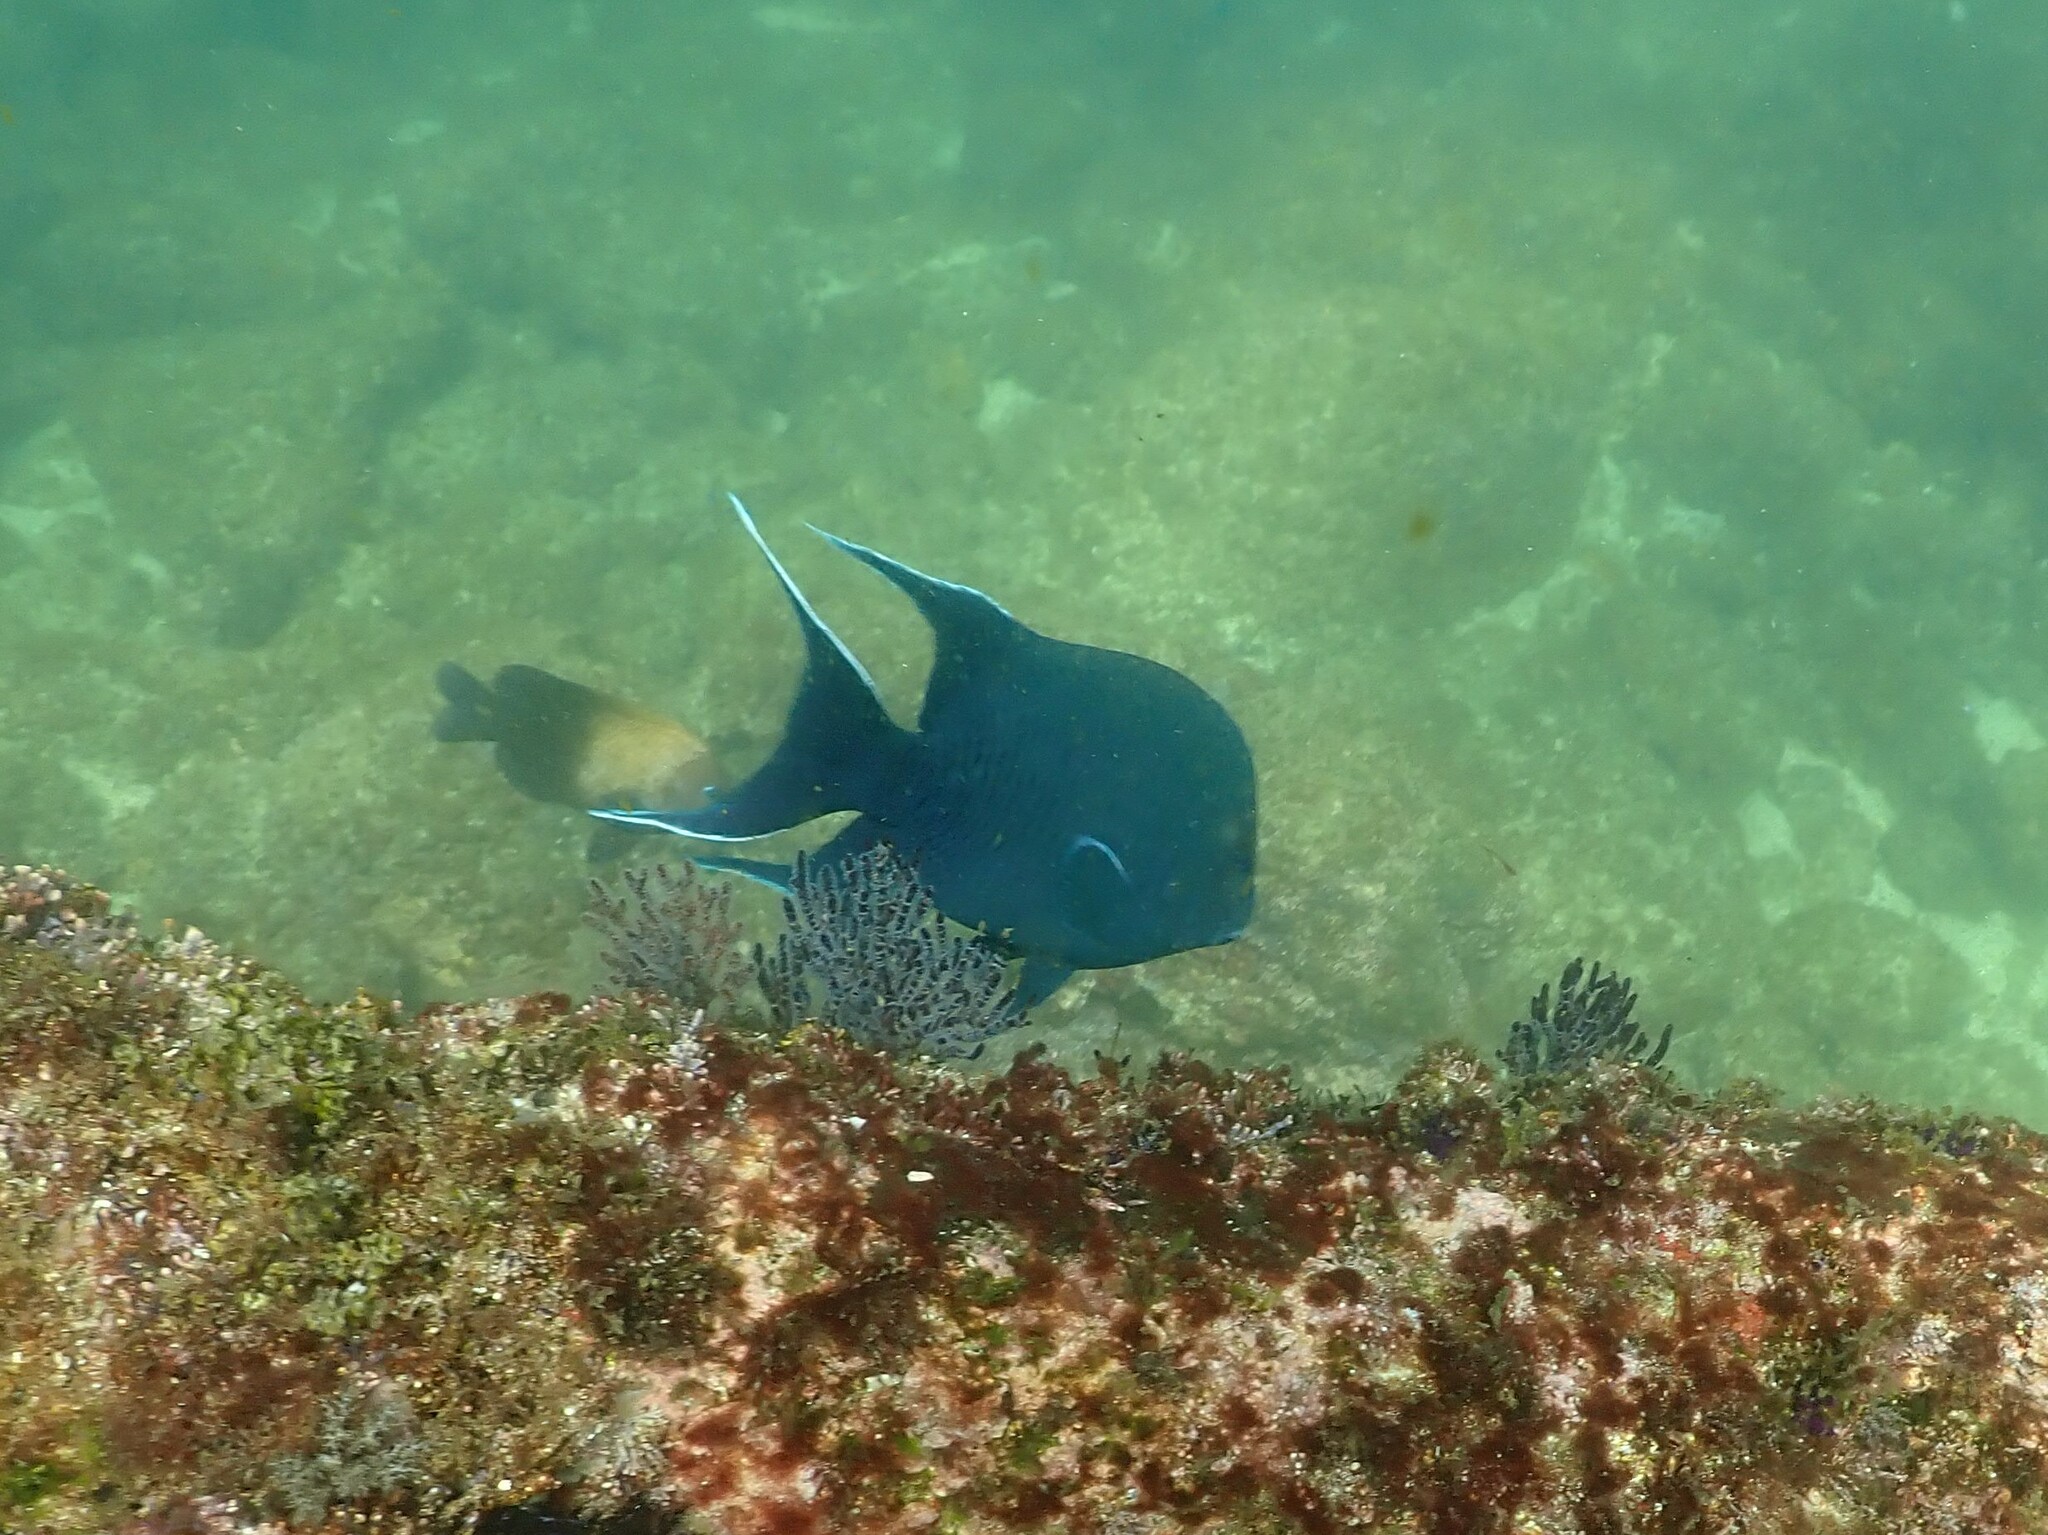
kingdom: Animalia
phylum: Chordata
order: Perciformes
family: Pomacentridae
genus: Microspathodon
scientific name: Microspathodon dorsalis
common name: Giant damselfish
